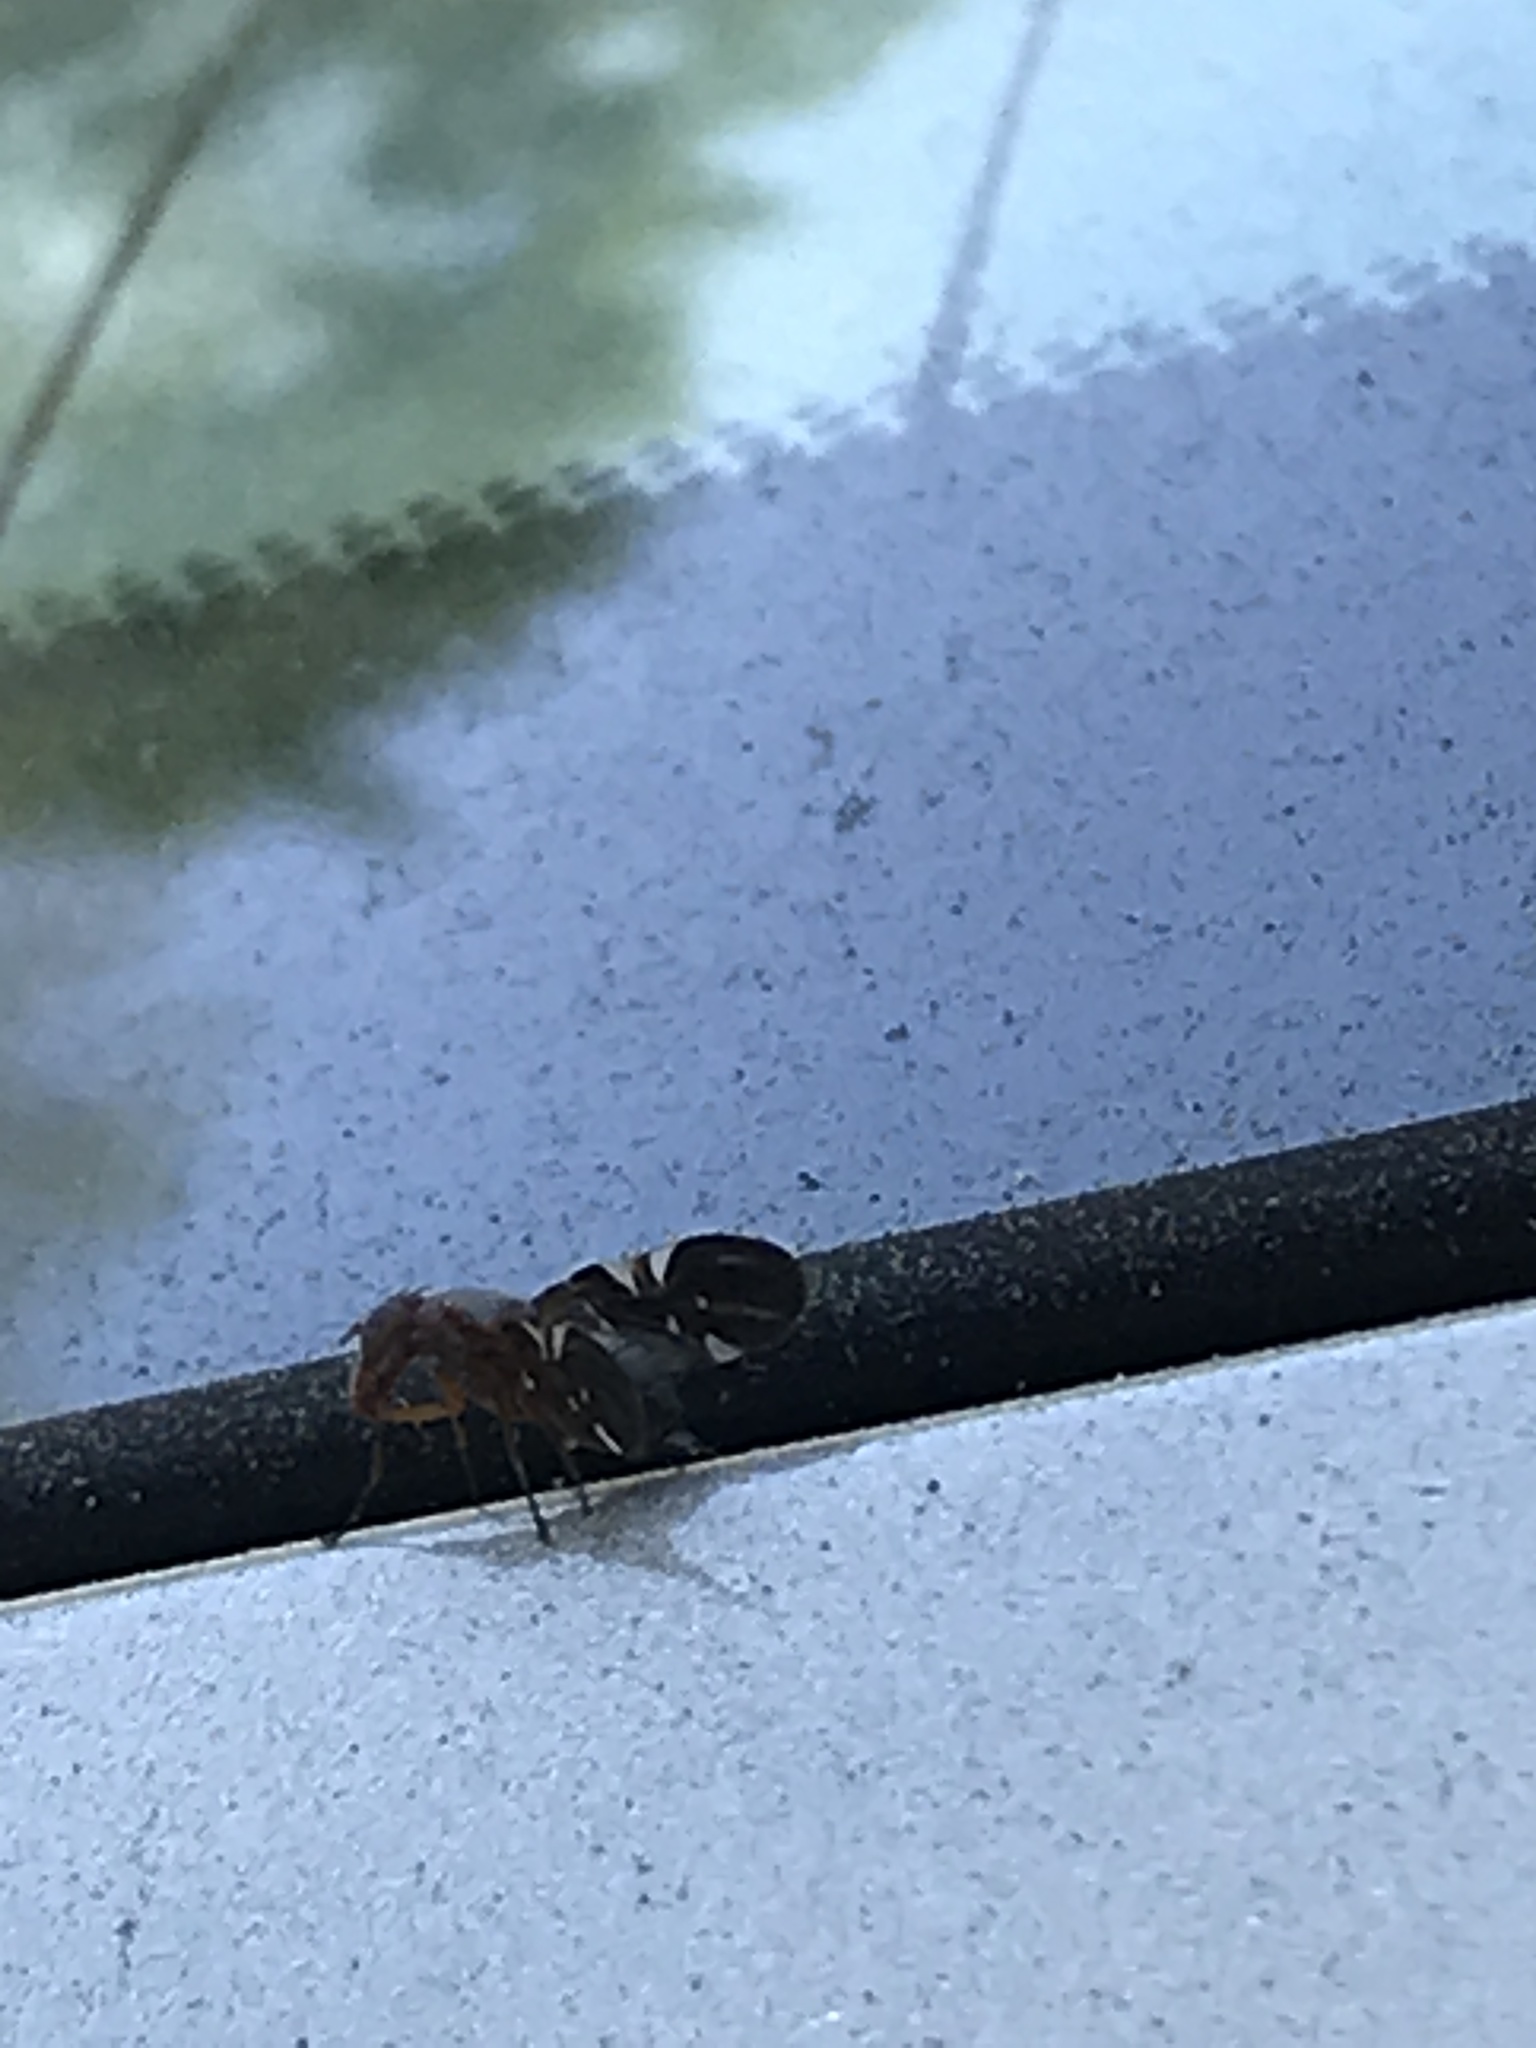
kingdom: Animalia
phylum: Arthropoda
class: Insecta
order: Diptera
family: Ulidiidae
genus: Delphinia
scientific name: Delphinia picta
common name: Common picture-winged fly
